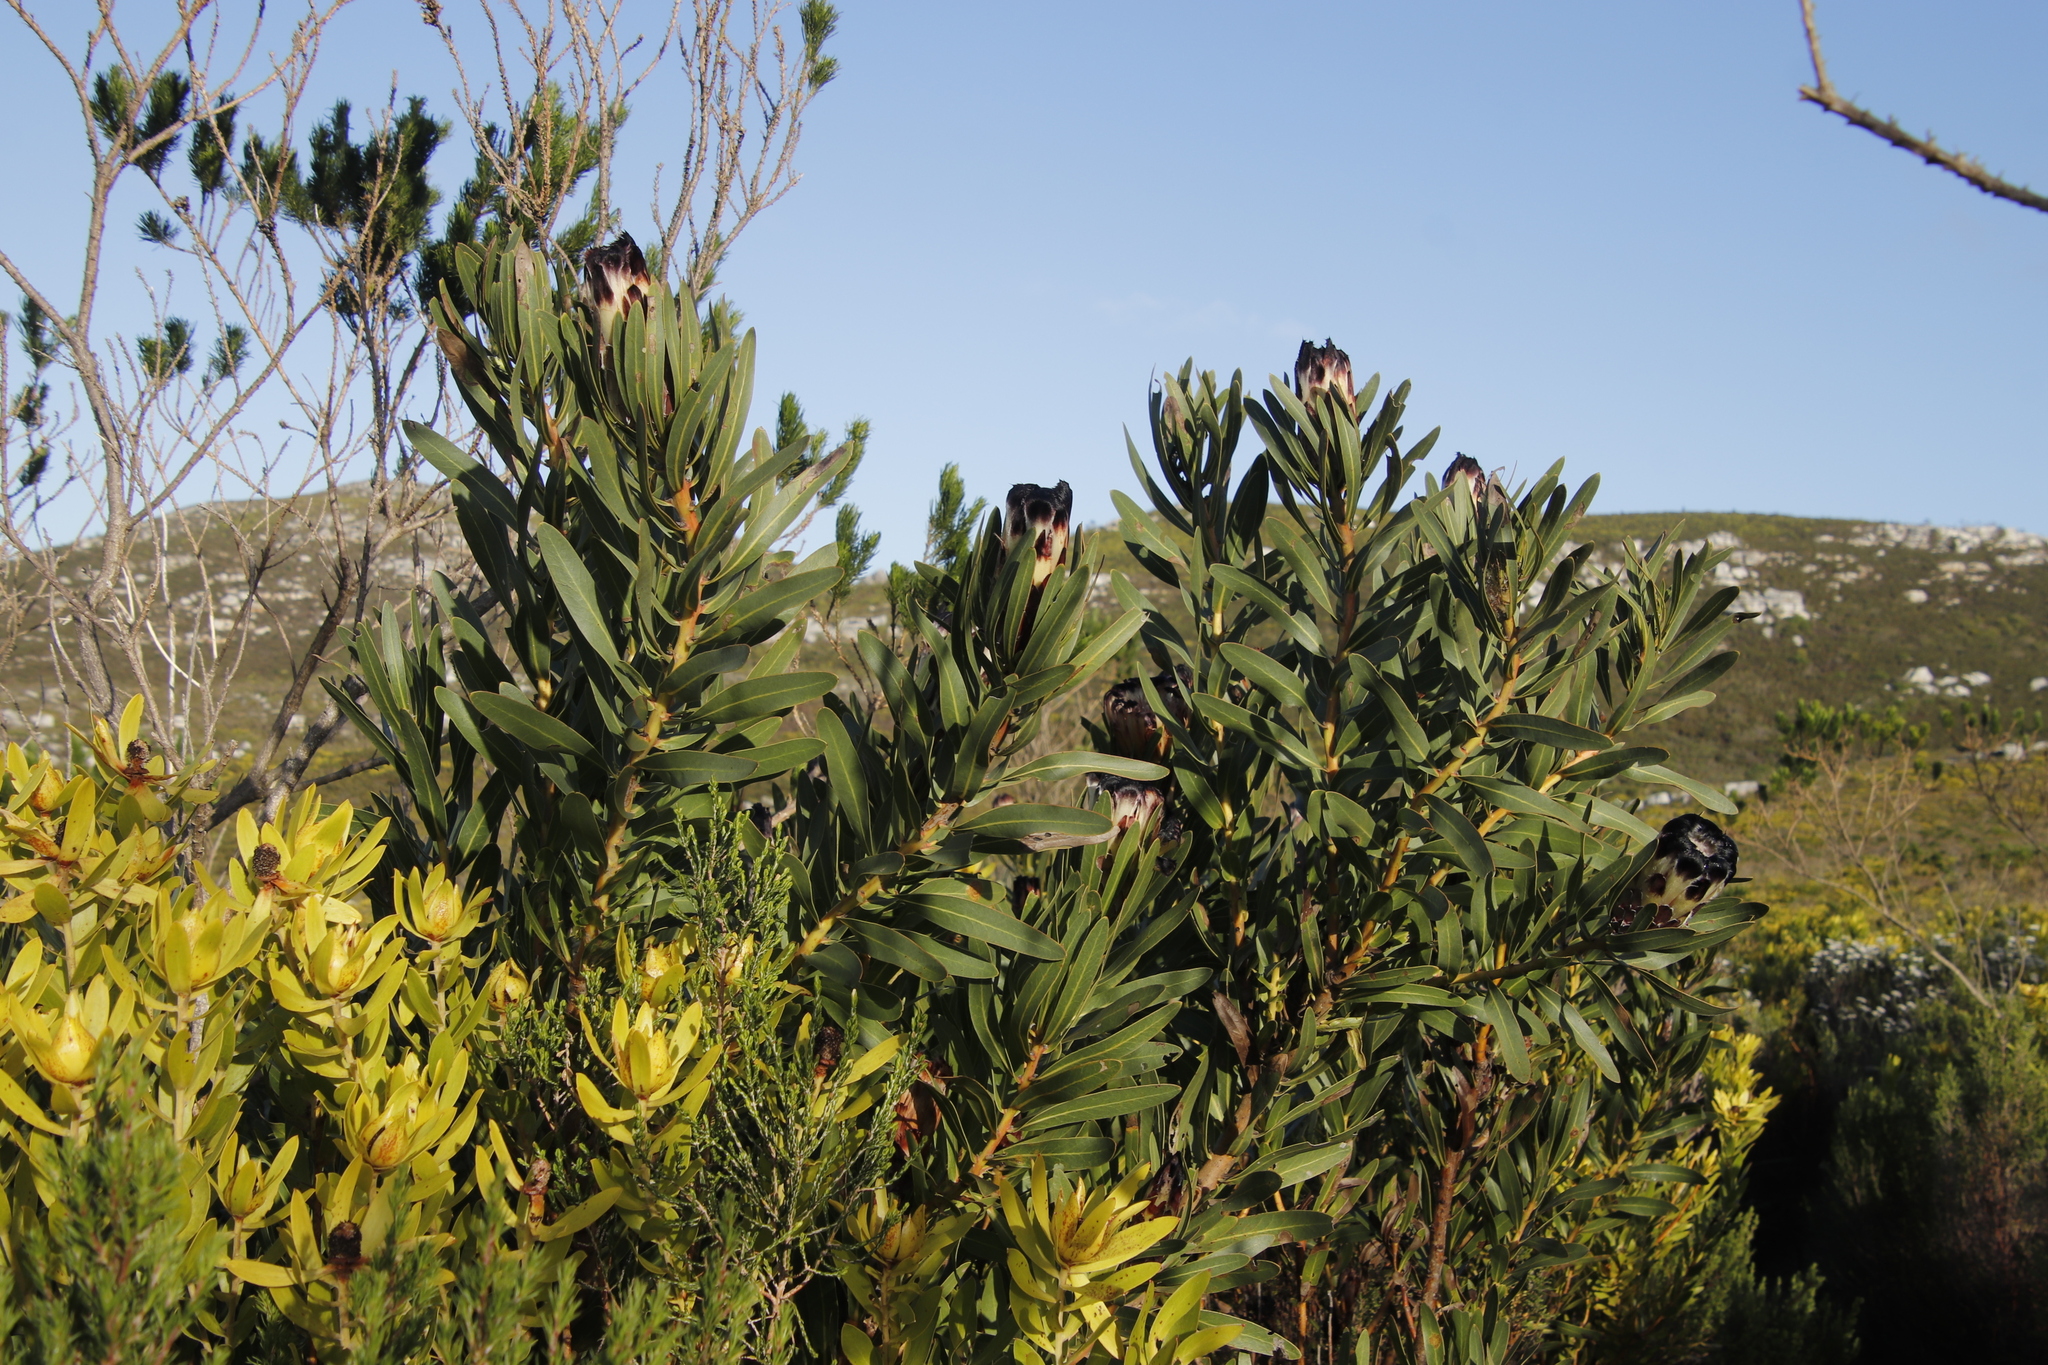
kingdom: Plantae
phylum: Tracheophyta
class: Magnoliopsida
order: Proteales
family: Proteaceae
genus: Protea
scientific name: Protea lepidocarpodendron
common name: Black-bearded protea
